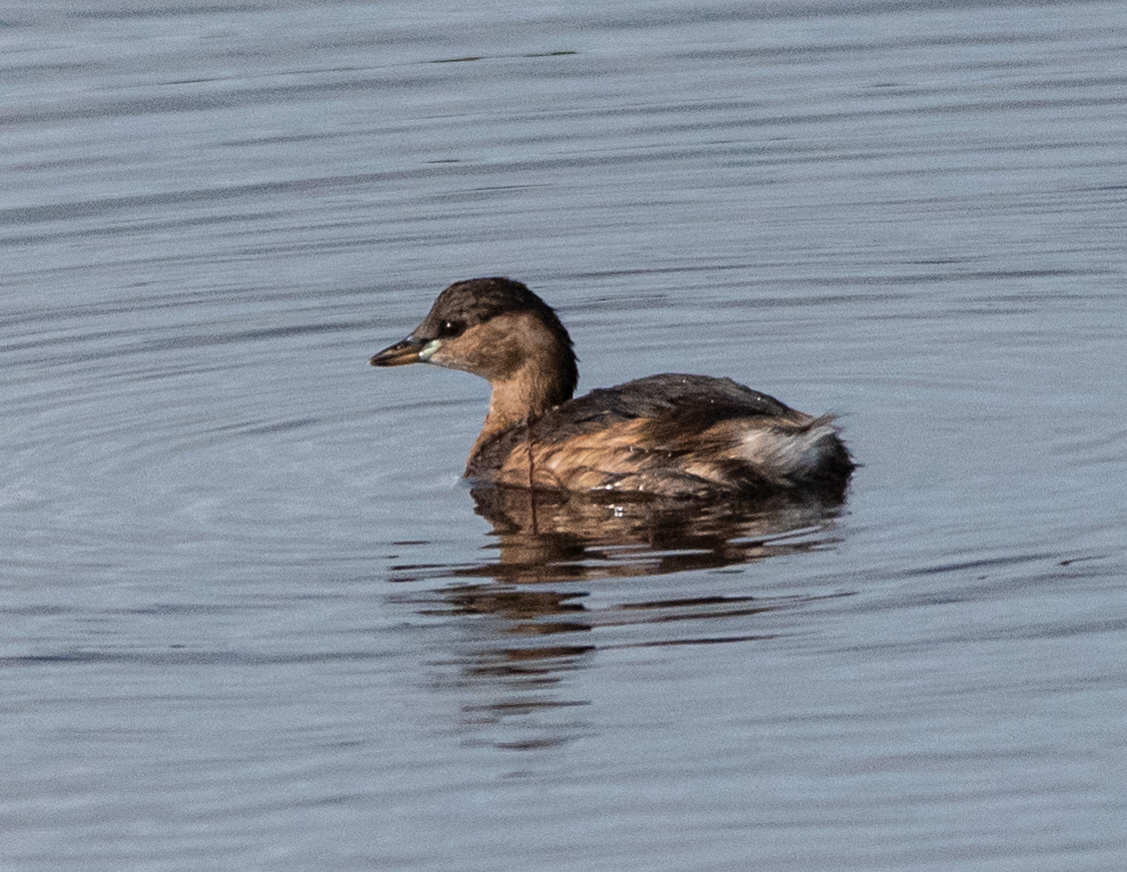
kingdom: Animalia
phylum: Chordata
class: Aves
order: Podicipediformes
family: Podicipedidae
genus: Tachybaptus
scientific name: Tachybaptus ruficollis
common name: Little grebe
